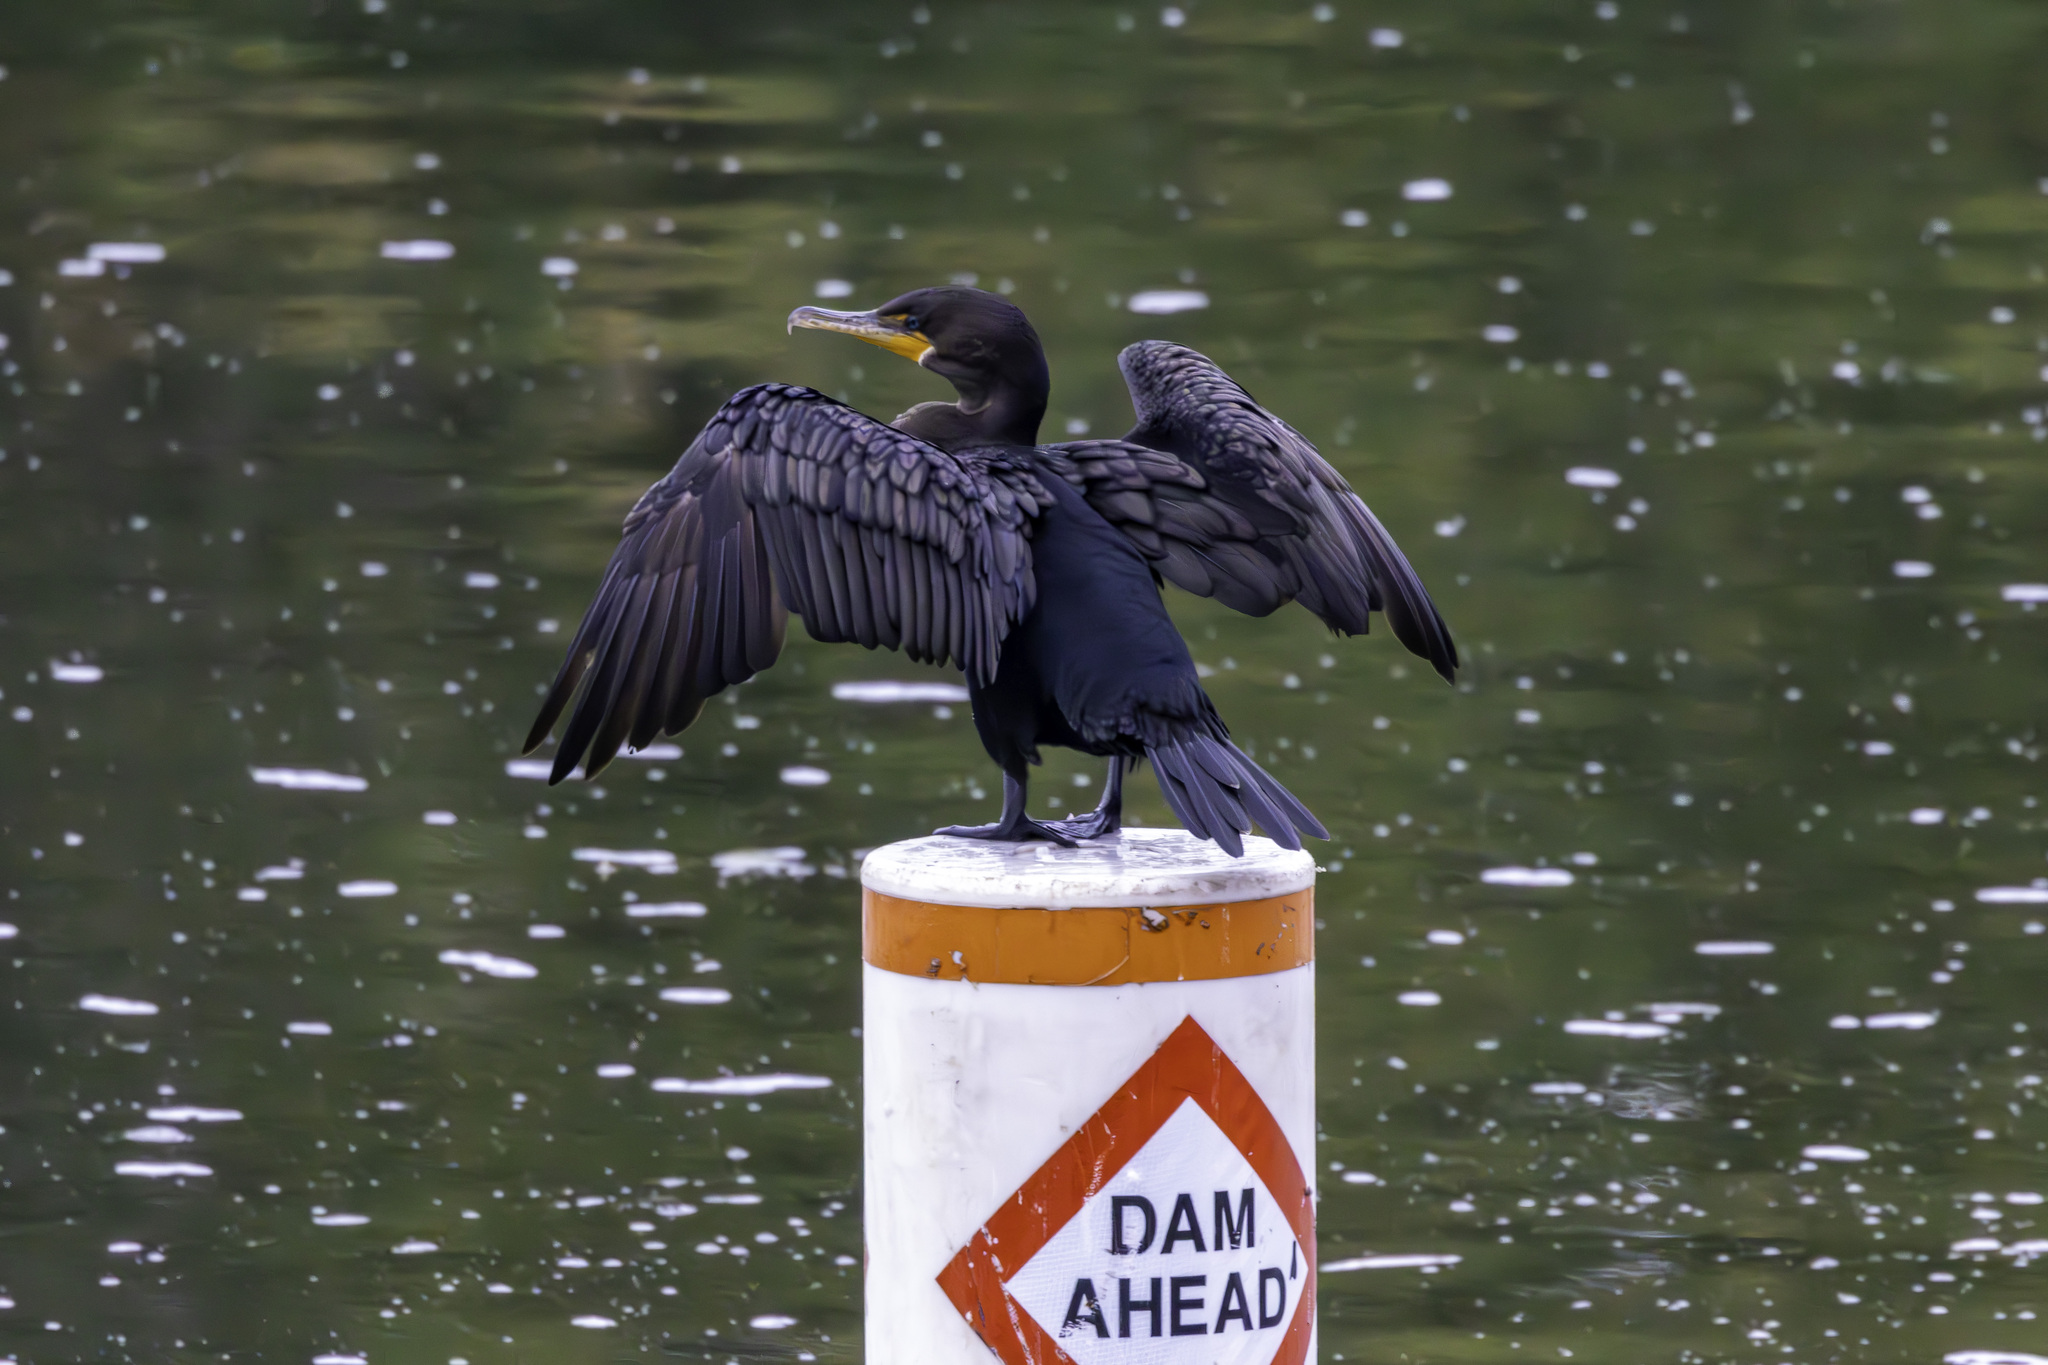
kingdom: Animalia
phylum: Chordata
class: Aves
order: Suliformes
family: Phalacrocoracidae
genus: Phalacrocorax
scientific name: Phalacrocorax auritus
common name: Double-crested cormorant
